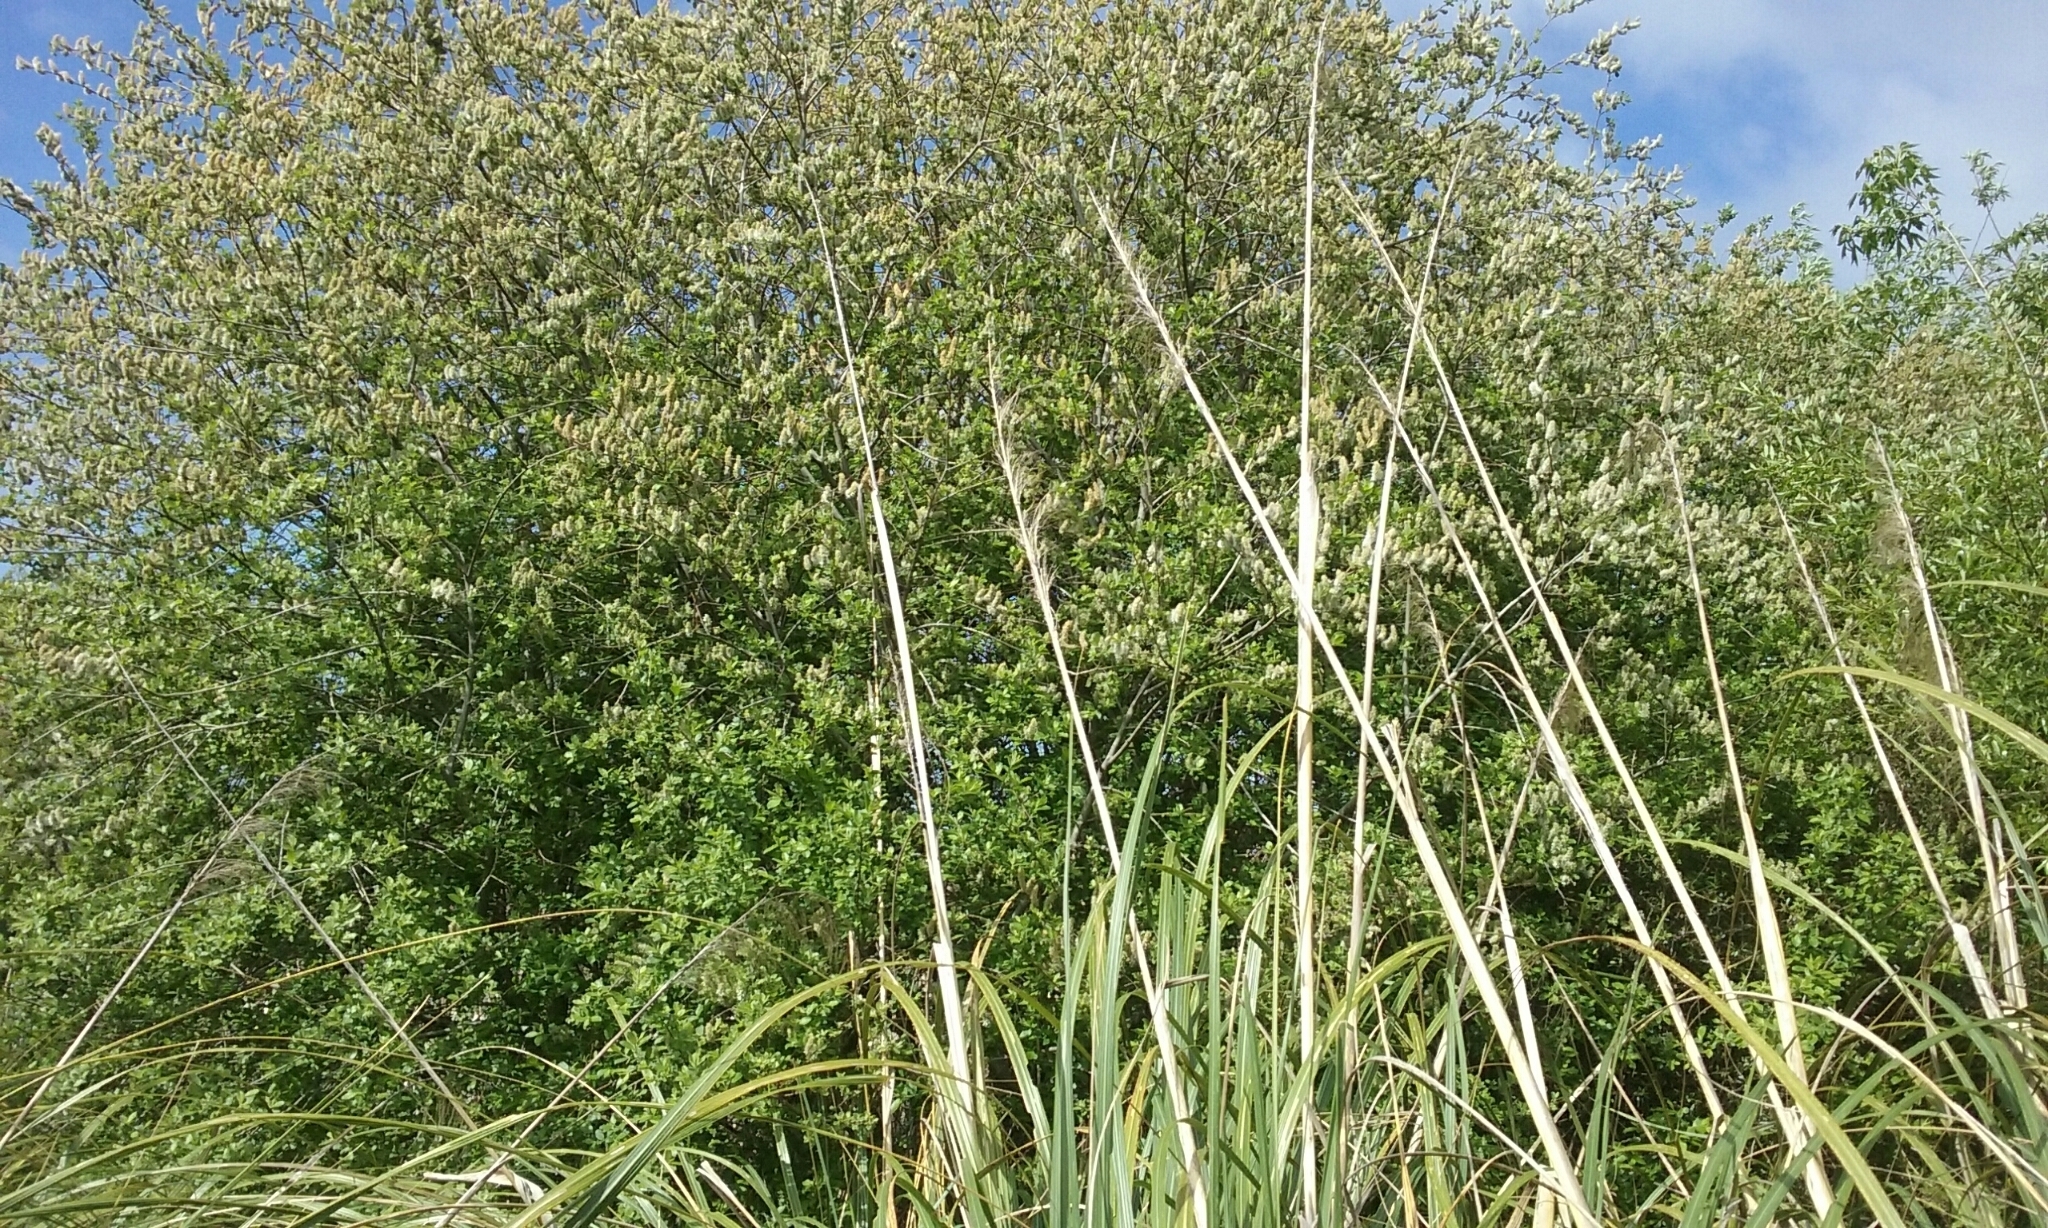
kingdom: Plantae
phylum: Tracheophyta
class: Magnoliopsida
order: Malpighiales
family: Salicaceae
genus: Salix
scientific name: Salix cinerea
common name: Common sallow
